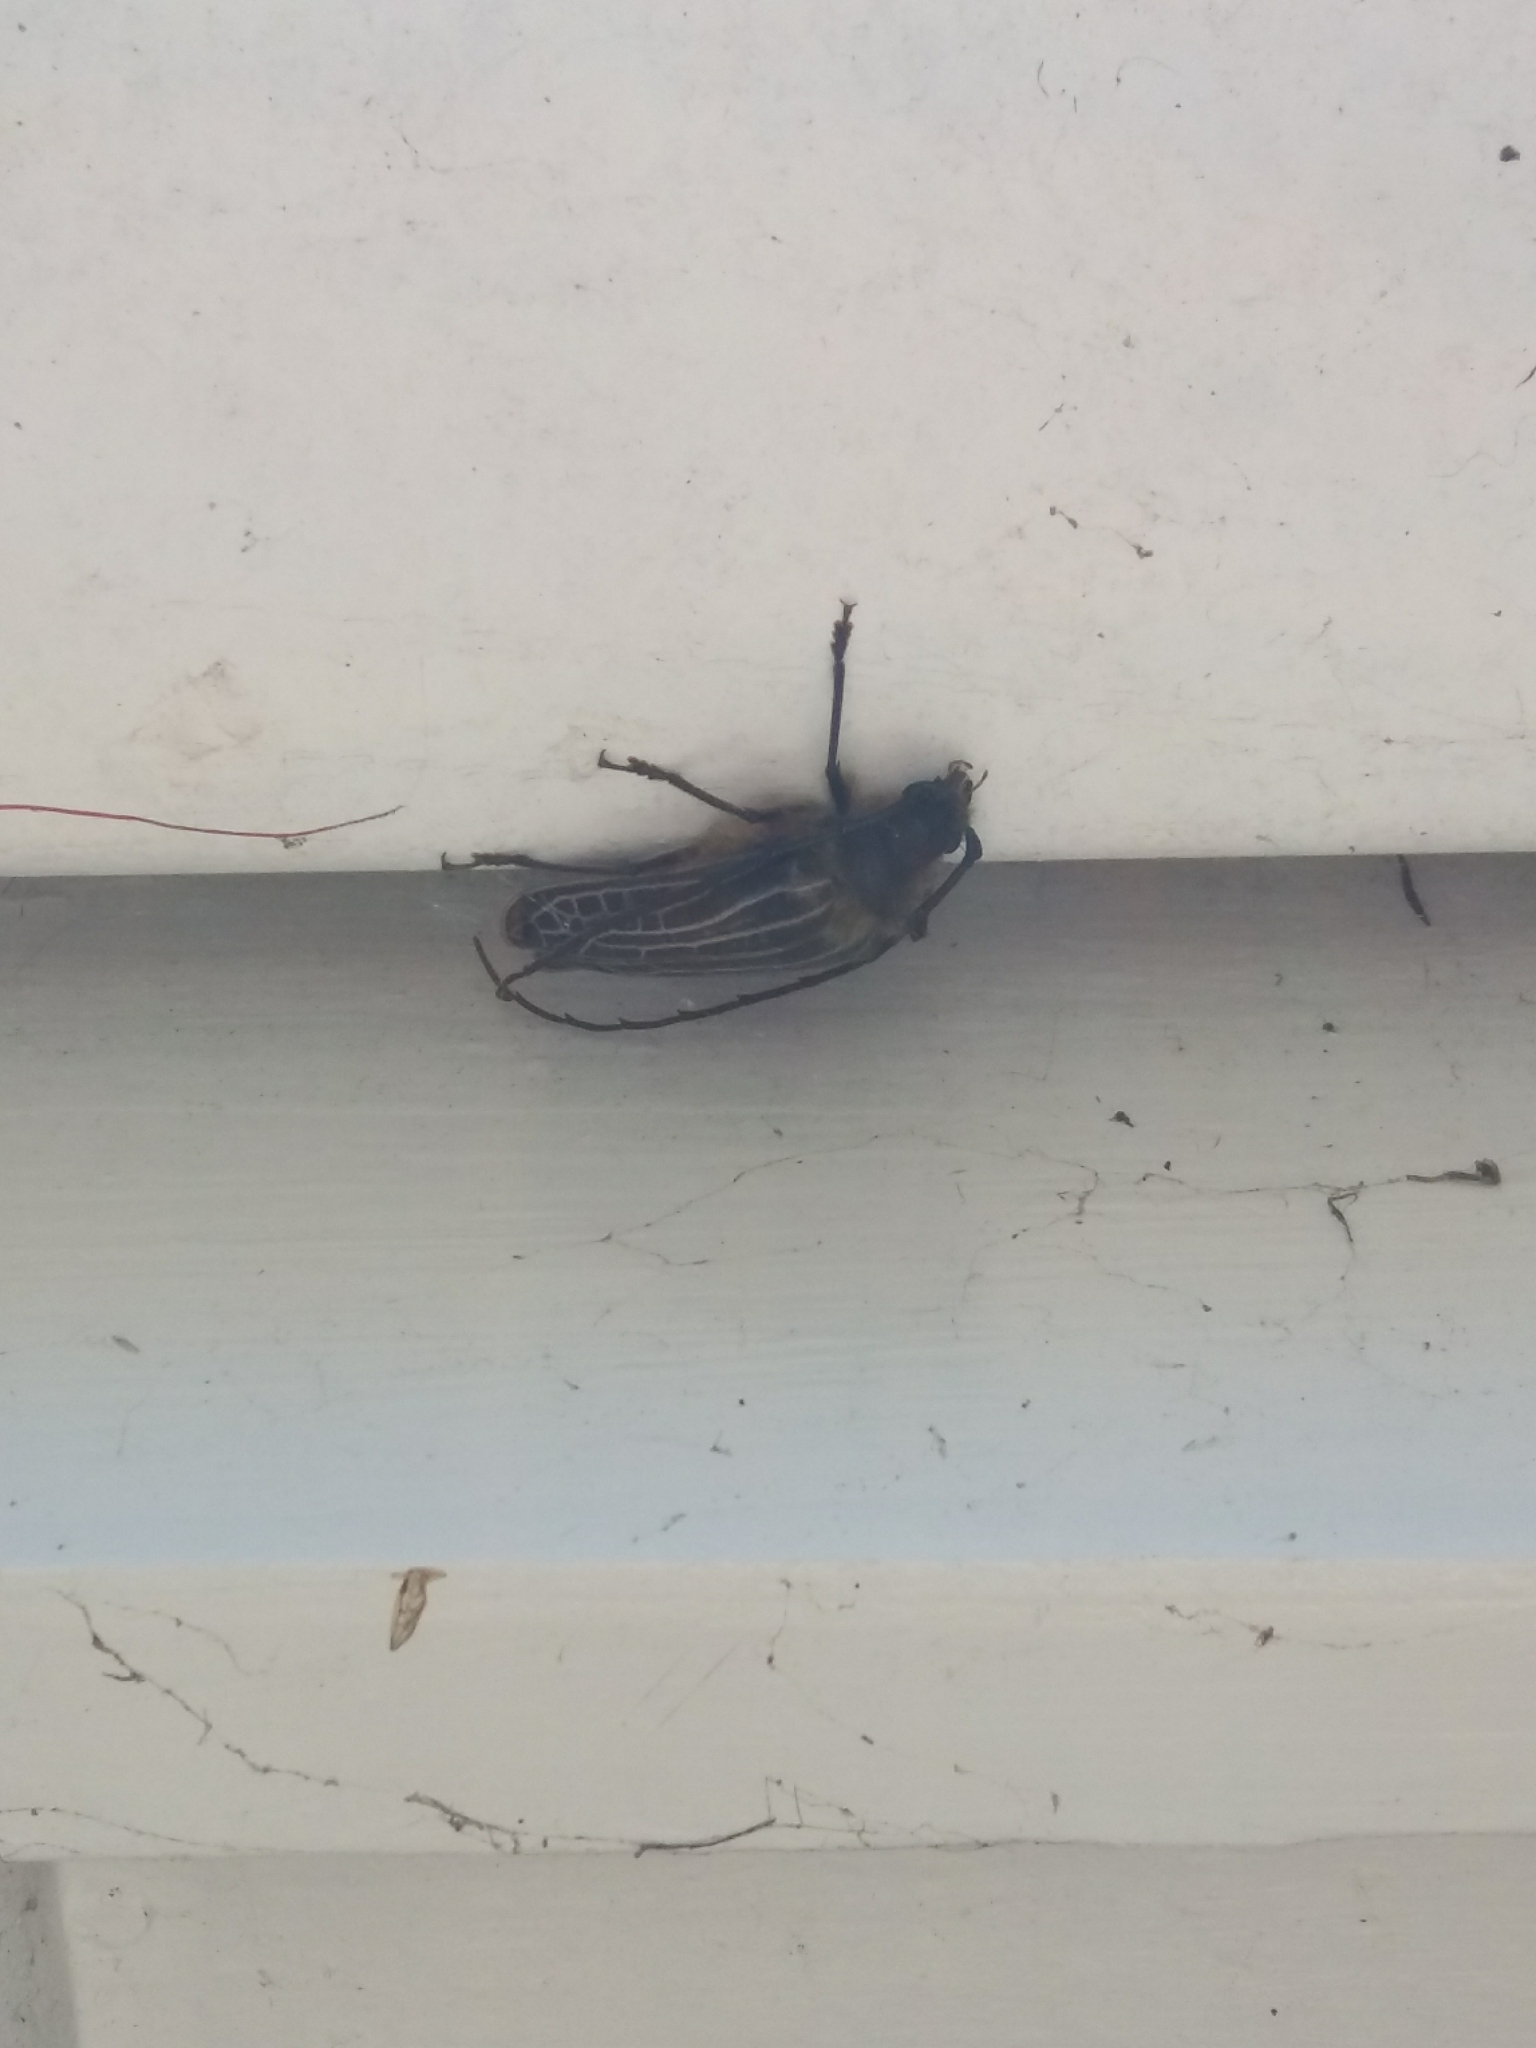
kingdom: Animalia
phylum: Arthropoda
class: Insecta
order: Coleoptera
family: Cerambycidae
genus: Prionoplus
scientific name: Prionoplus reticularis
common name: Huhu beetle
